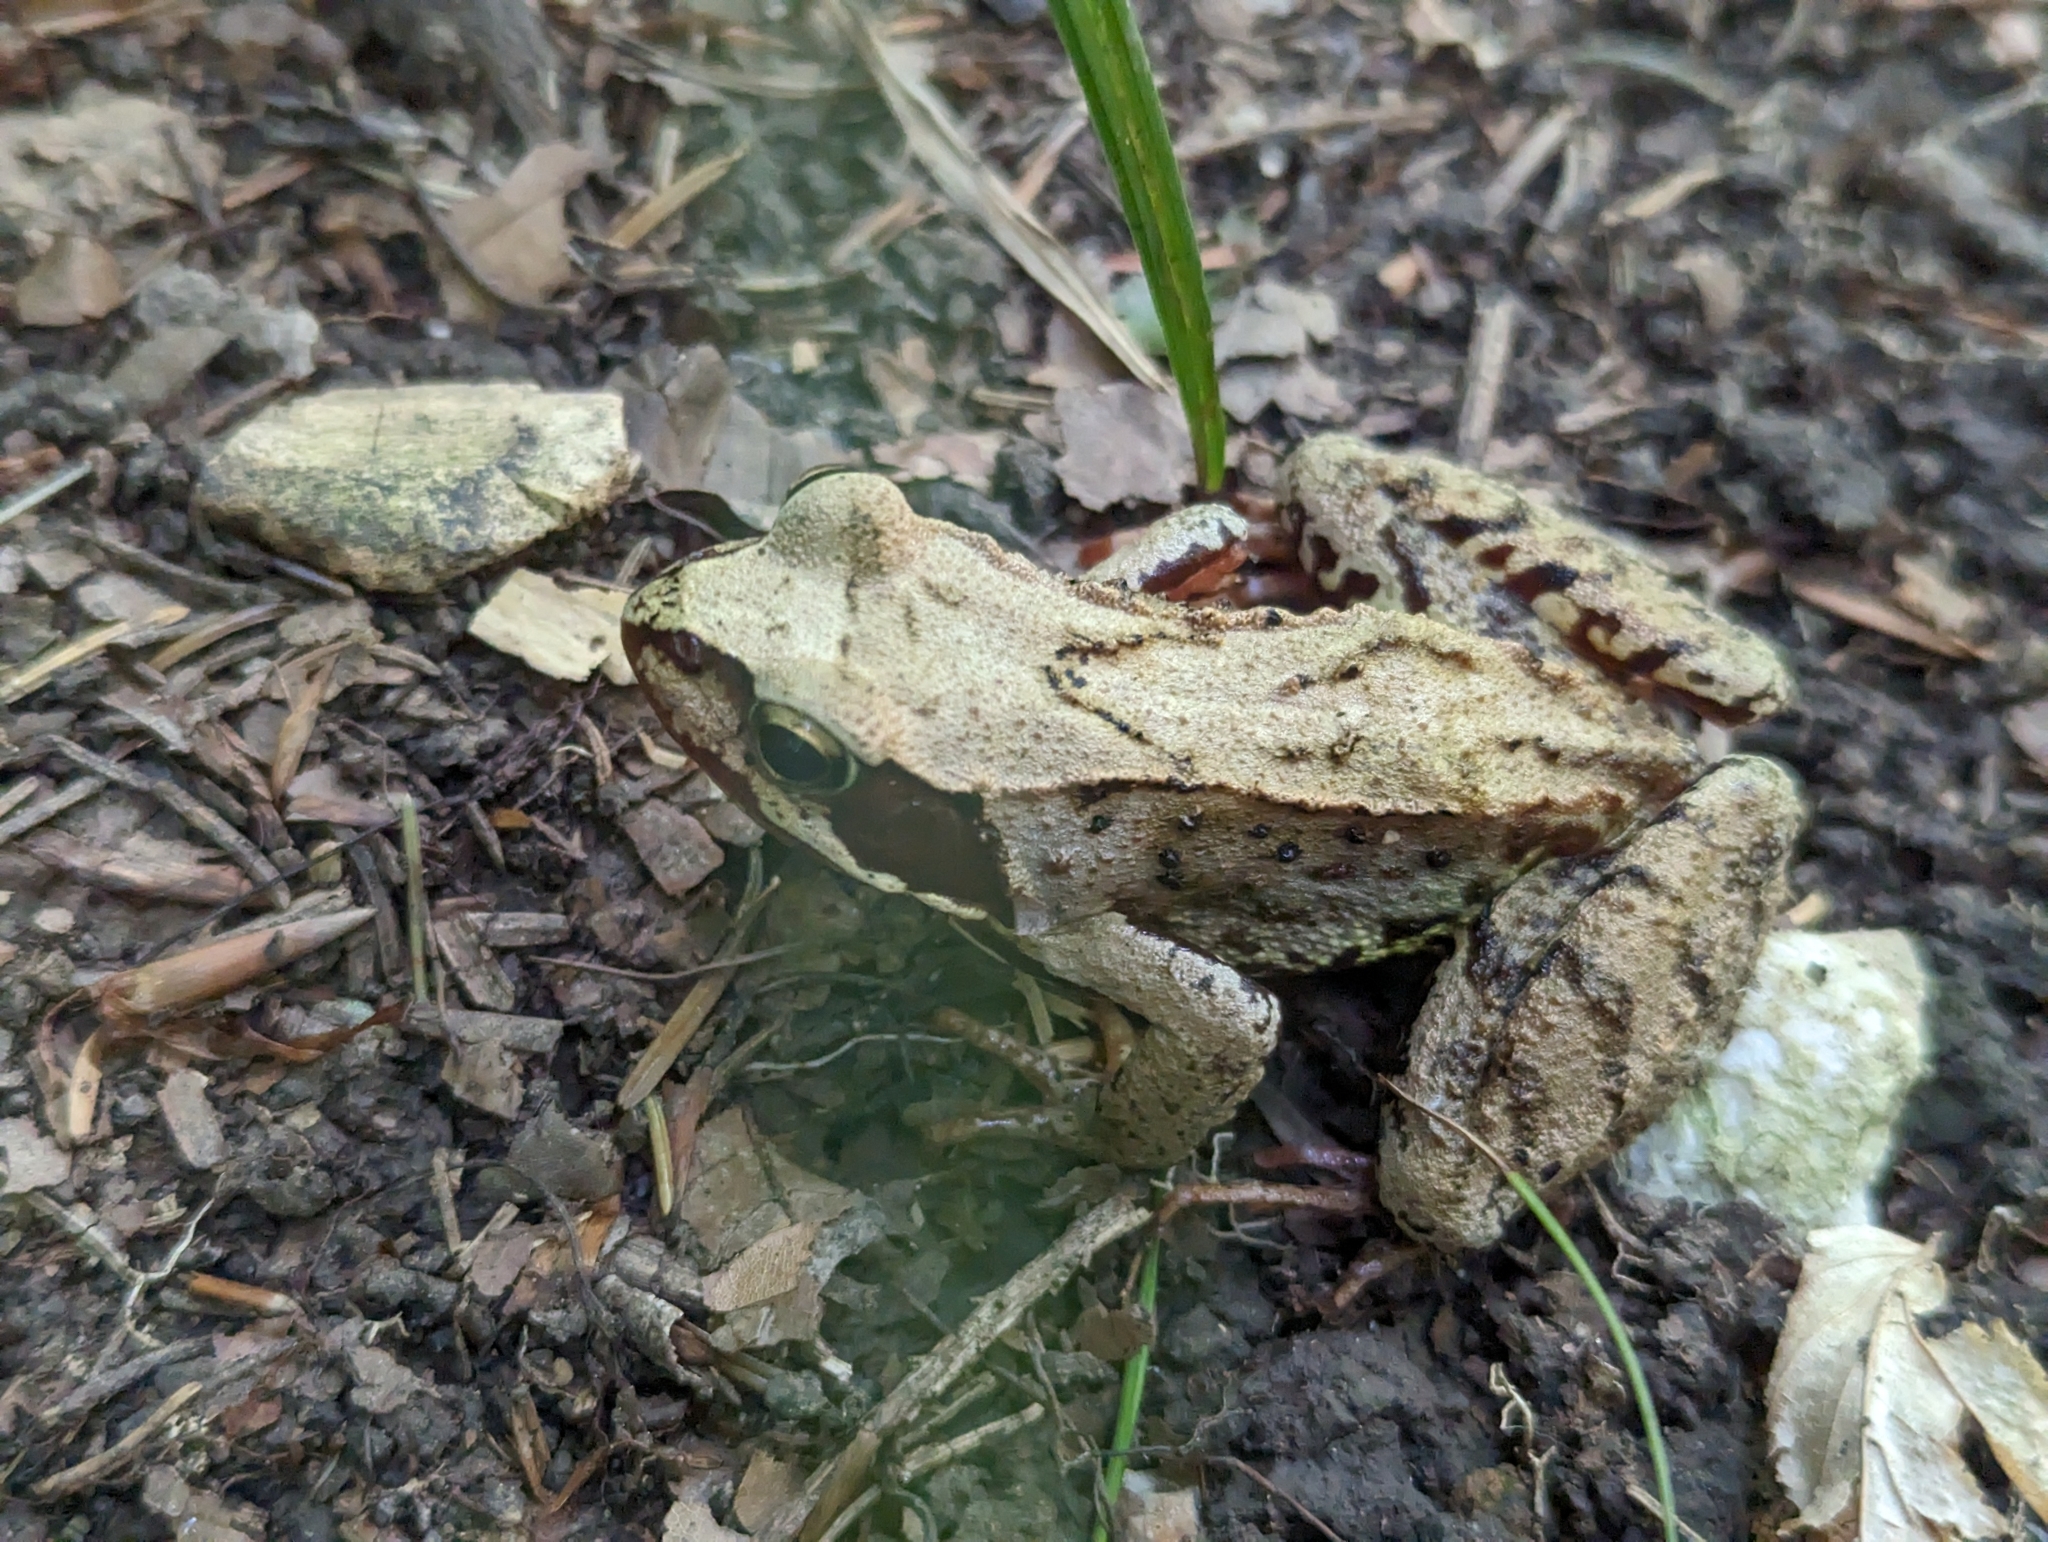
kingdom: Animalia
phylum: Chordata
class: Amphibia
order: Anura
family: Ranidae
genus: Rana
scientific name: Rana temporaria
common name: Common frog
